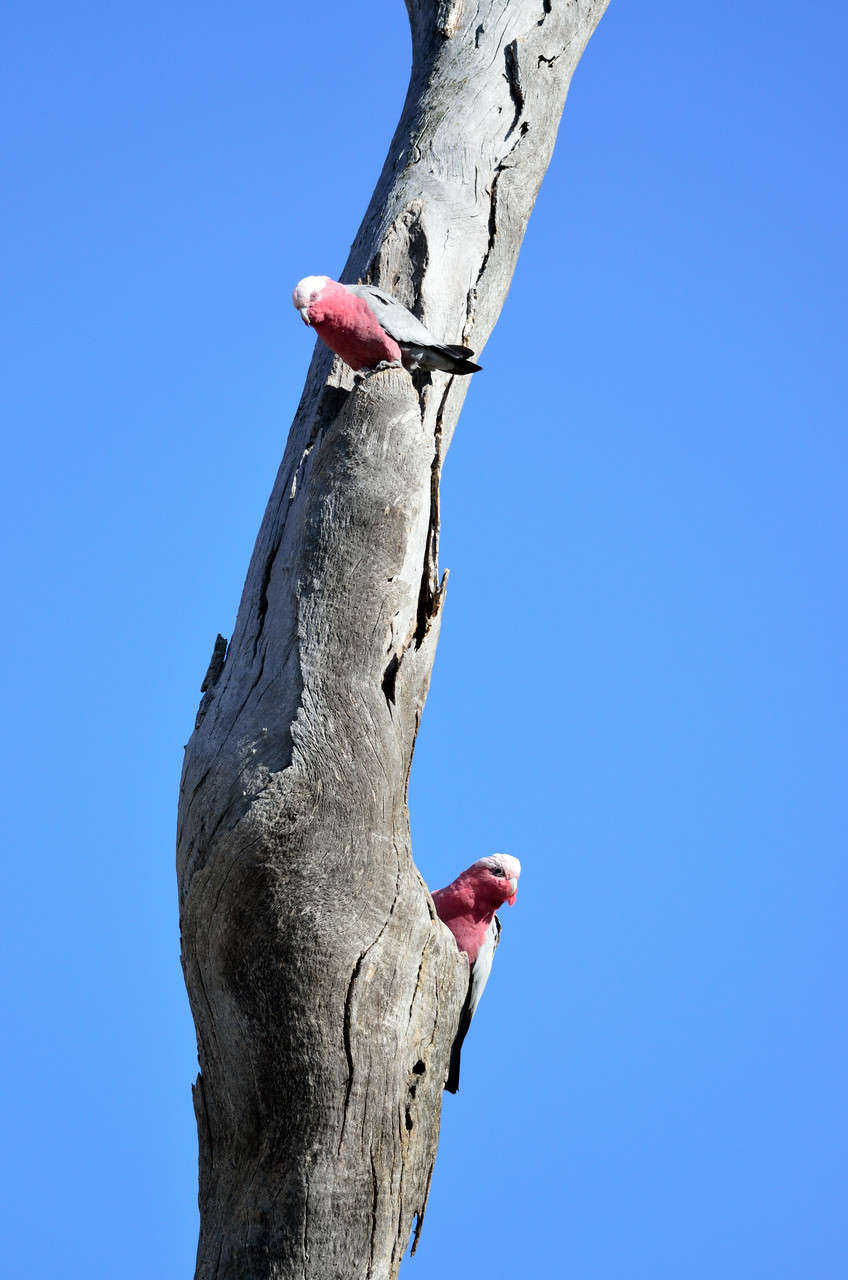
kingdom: Animalia
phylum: Chordata
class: Aves
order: Psittaciformes
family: Psittacidae
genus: Eolophus
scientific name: Eolophus roseicapilla
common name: Galah
